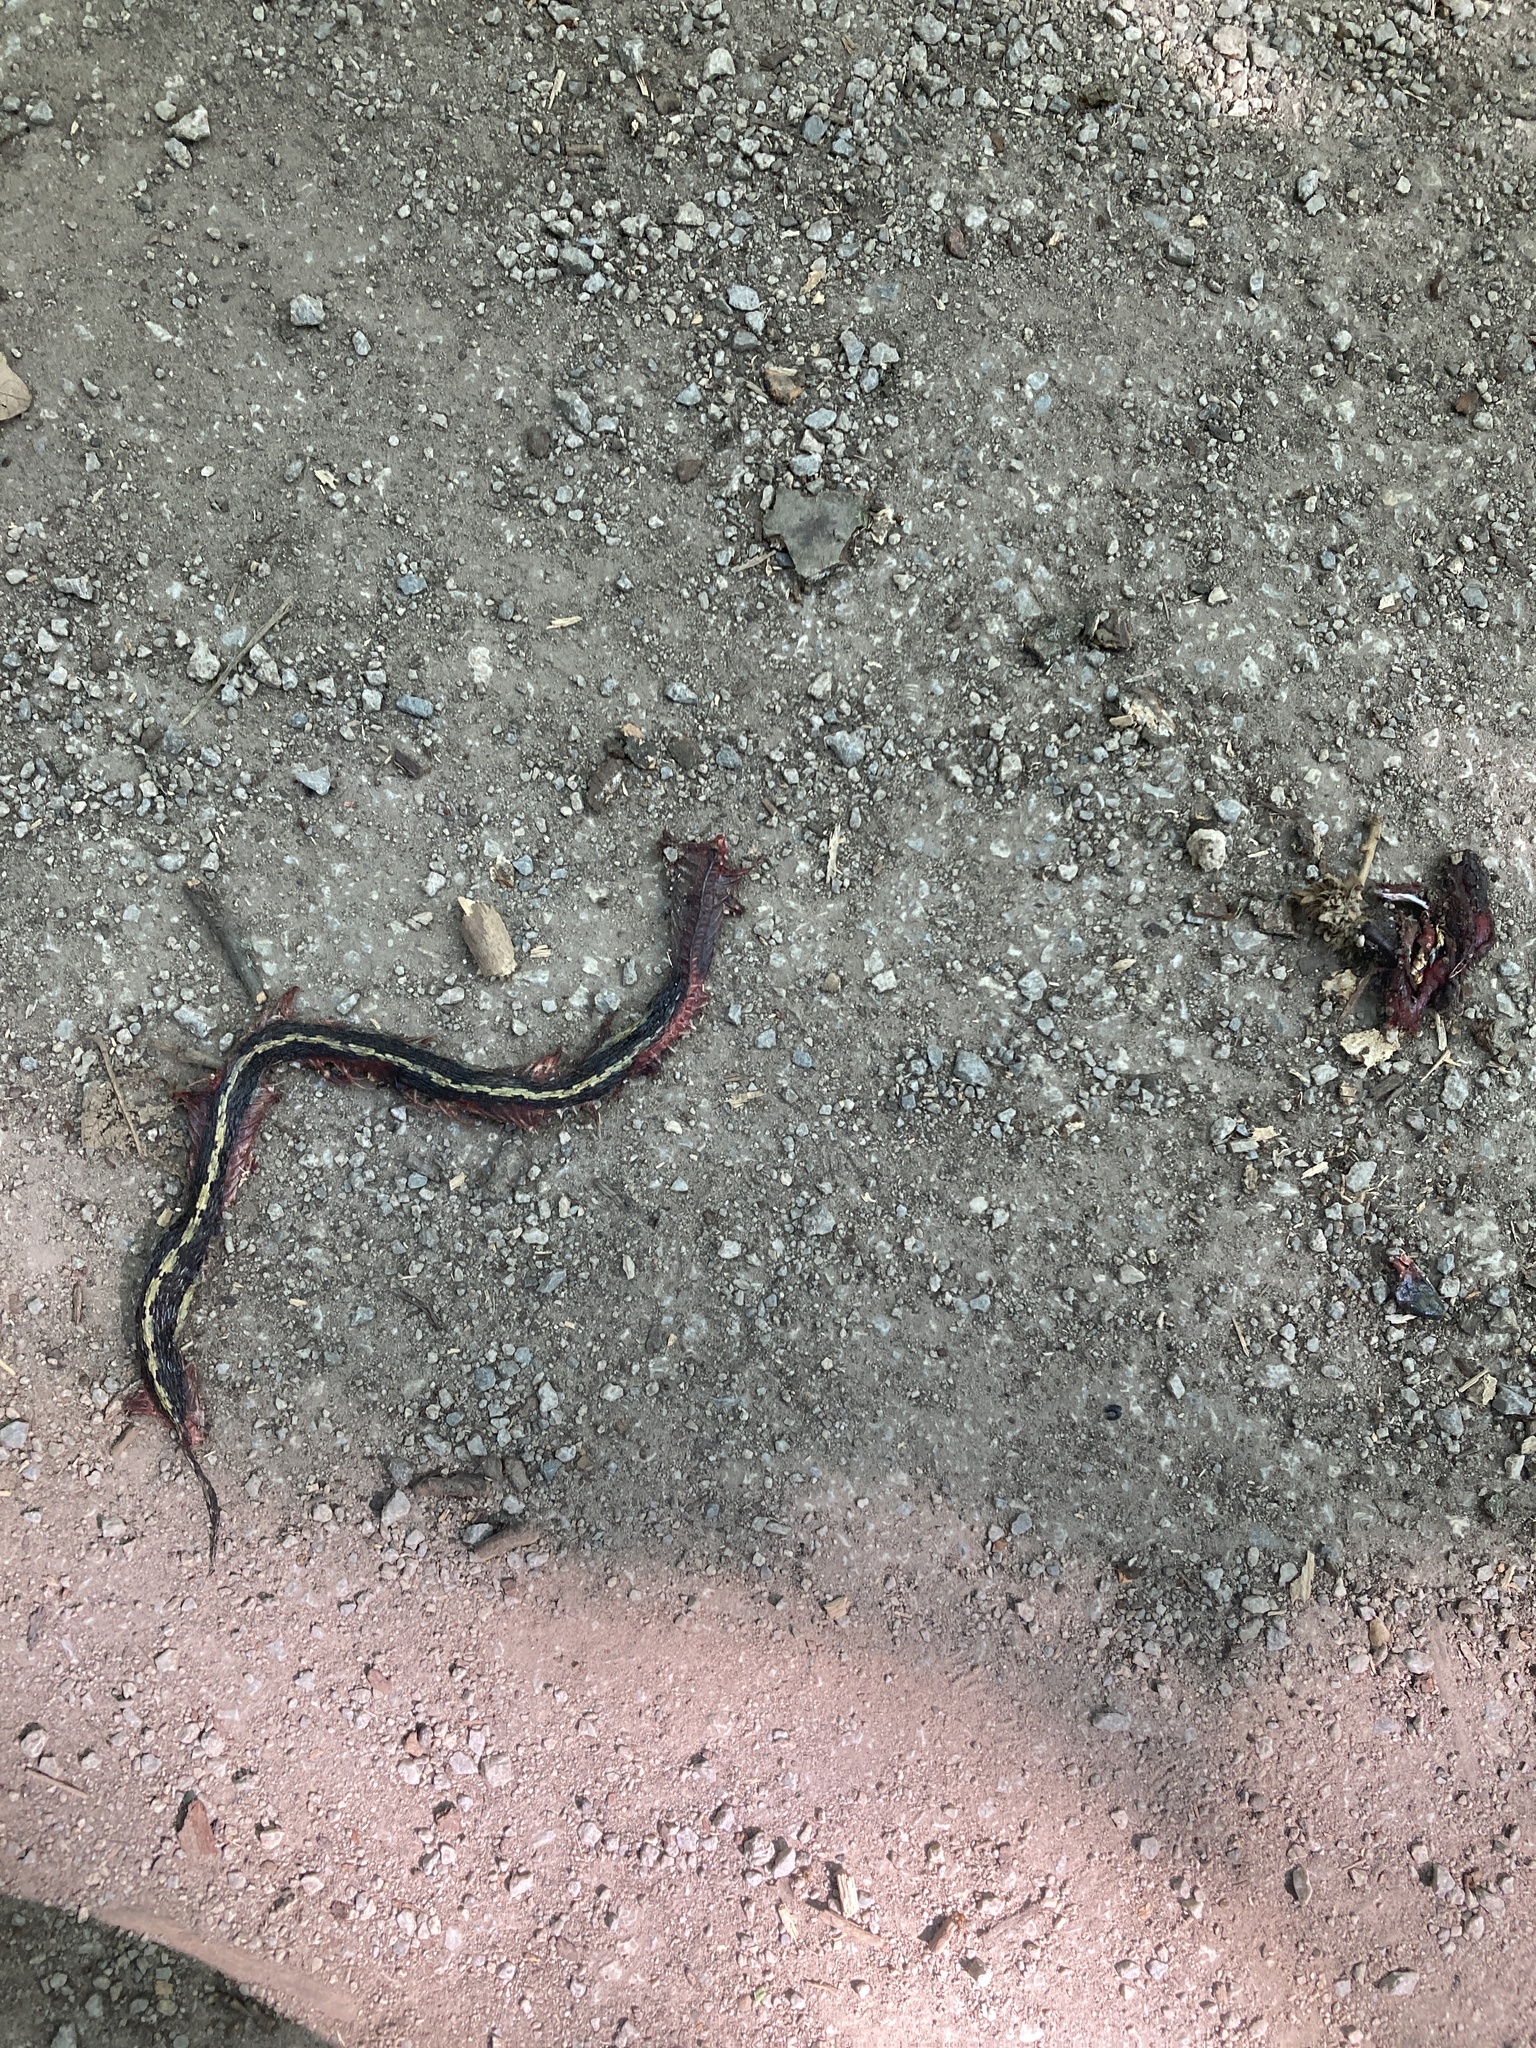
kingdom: Animalia
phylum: Chordata
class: Squamata
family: Colubridae
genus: Thamnophis
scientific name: Thamnophis sirtalis
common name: Common garter snake
